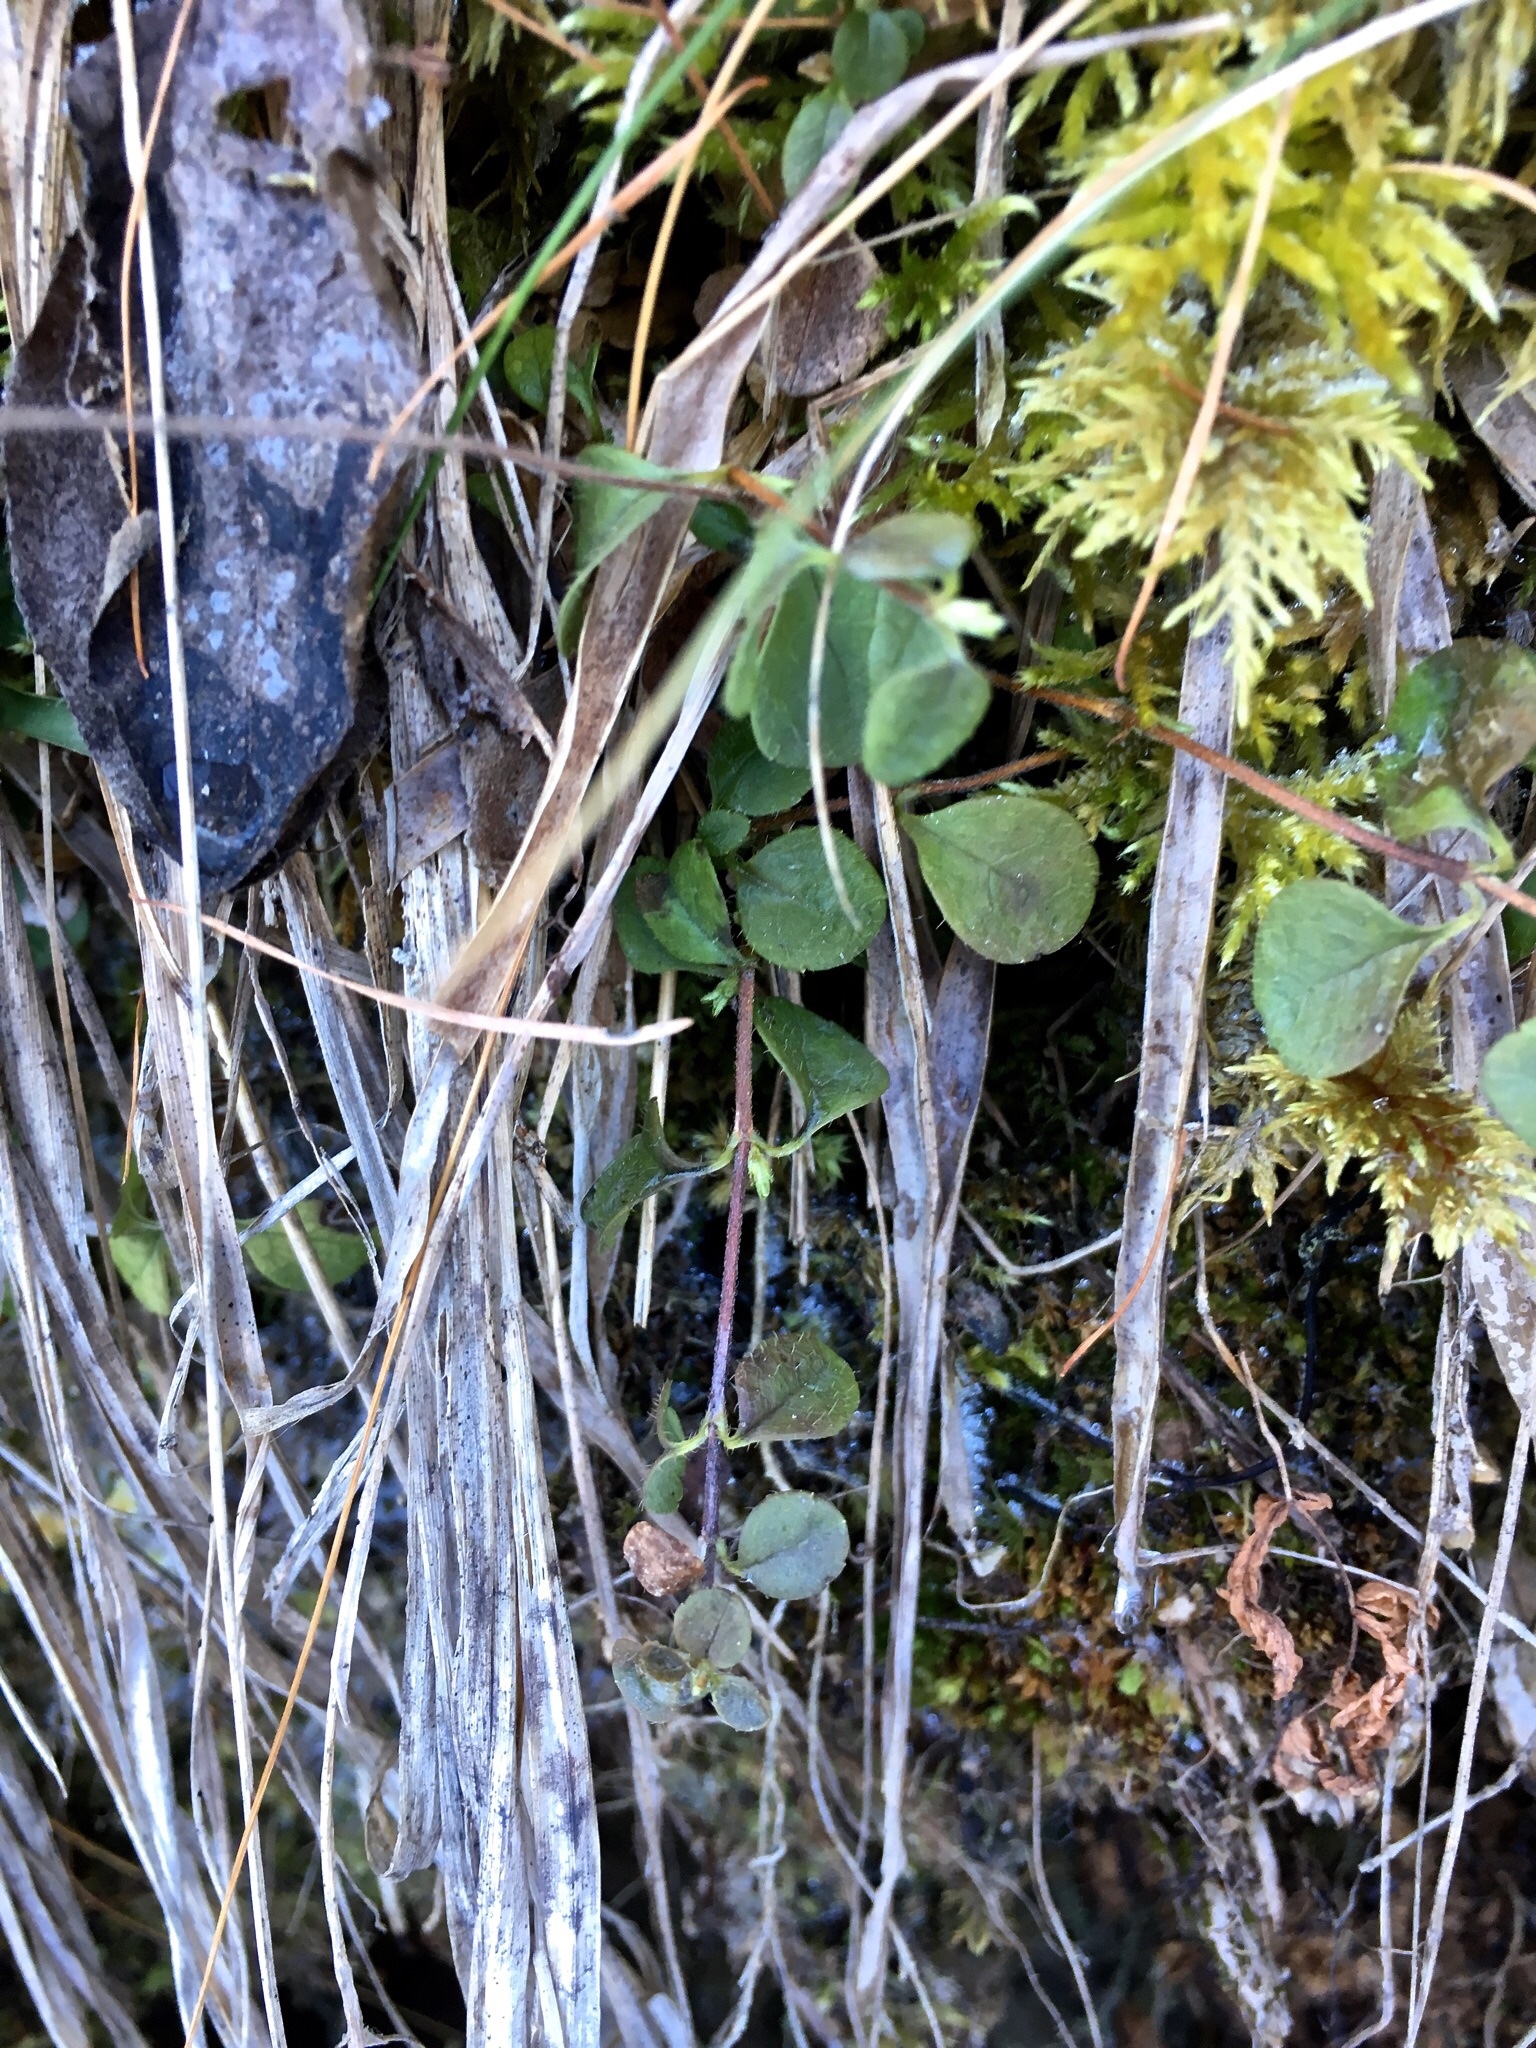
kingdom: Plantae
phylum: Tracheophyta
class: Magnoliopsida
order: Dipsacales
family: Caprifoliaceae
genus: Linnaea
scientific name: Linnaea borealis
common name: Twinflower
